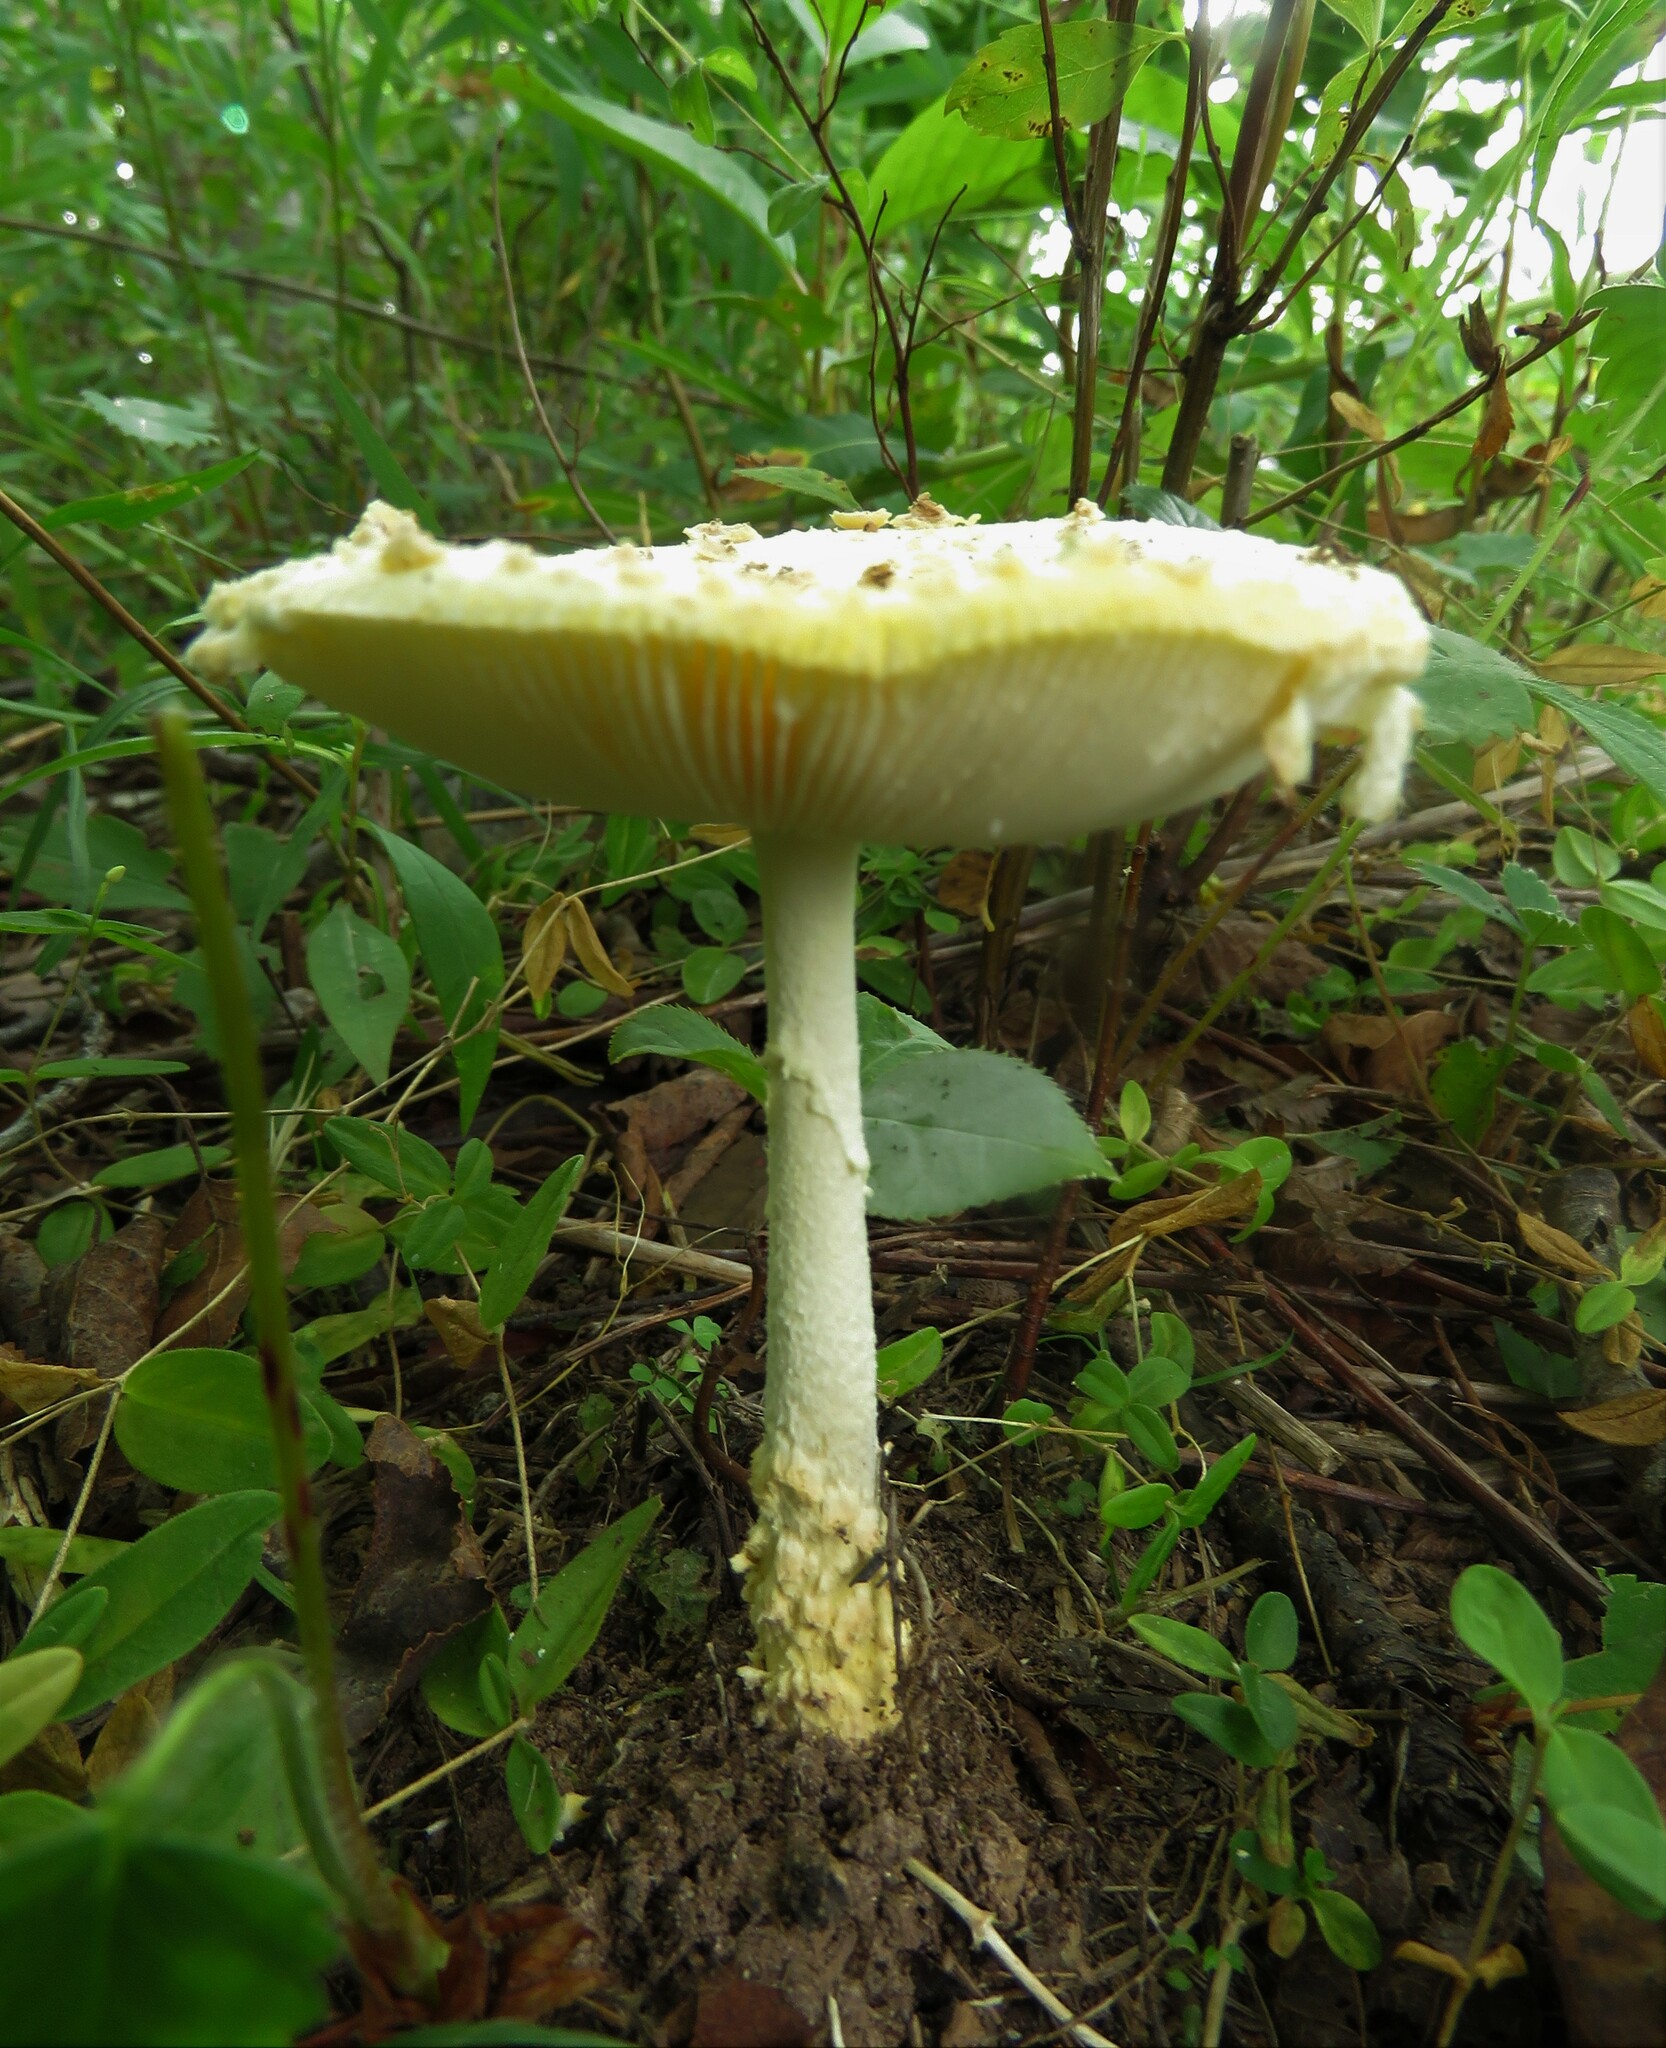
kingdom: Fungi
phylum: Basidiomycota
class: Agaricomycetes
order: Agaricales
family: Amanitaceae
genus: Amanita
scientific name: Amanita muscaria
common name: Fly agaric
